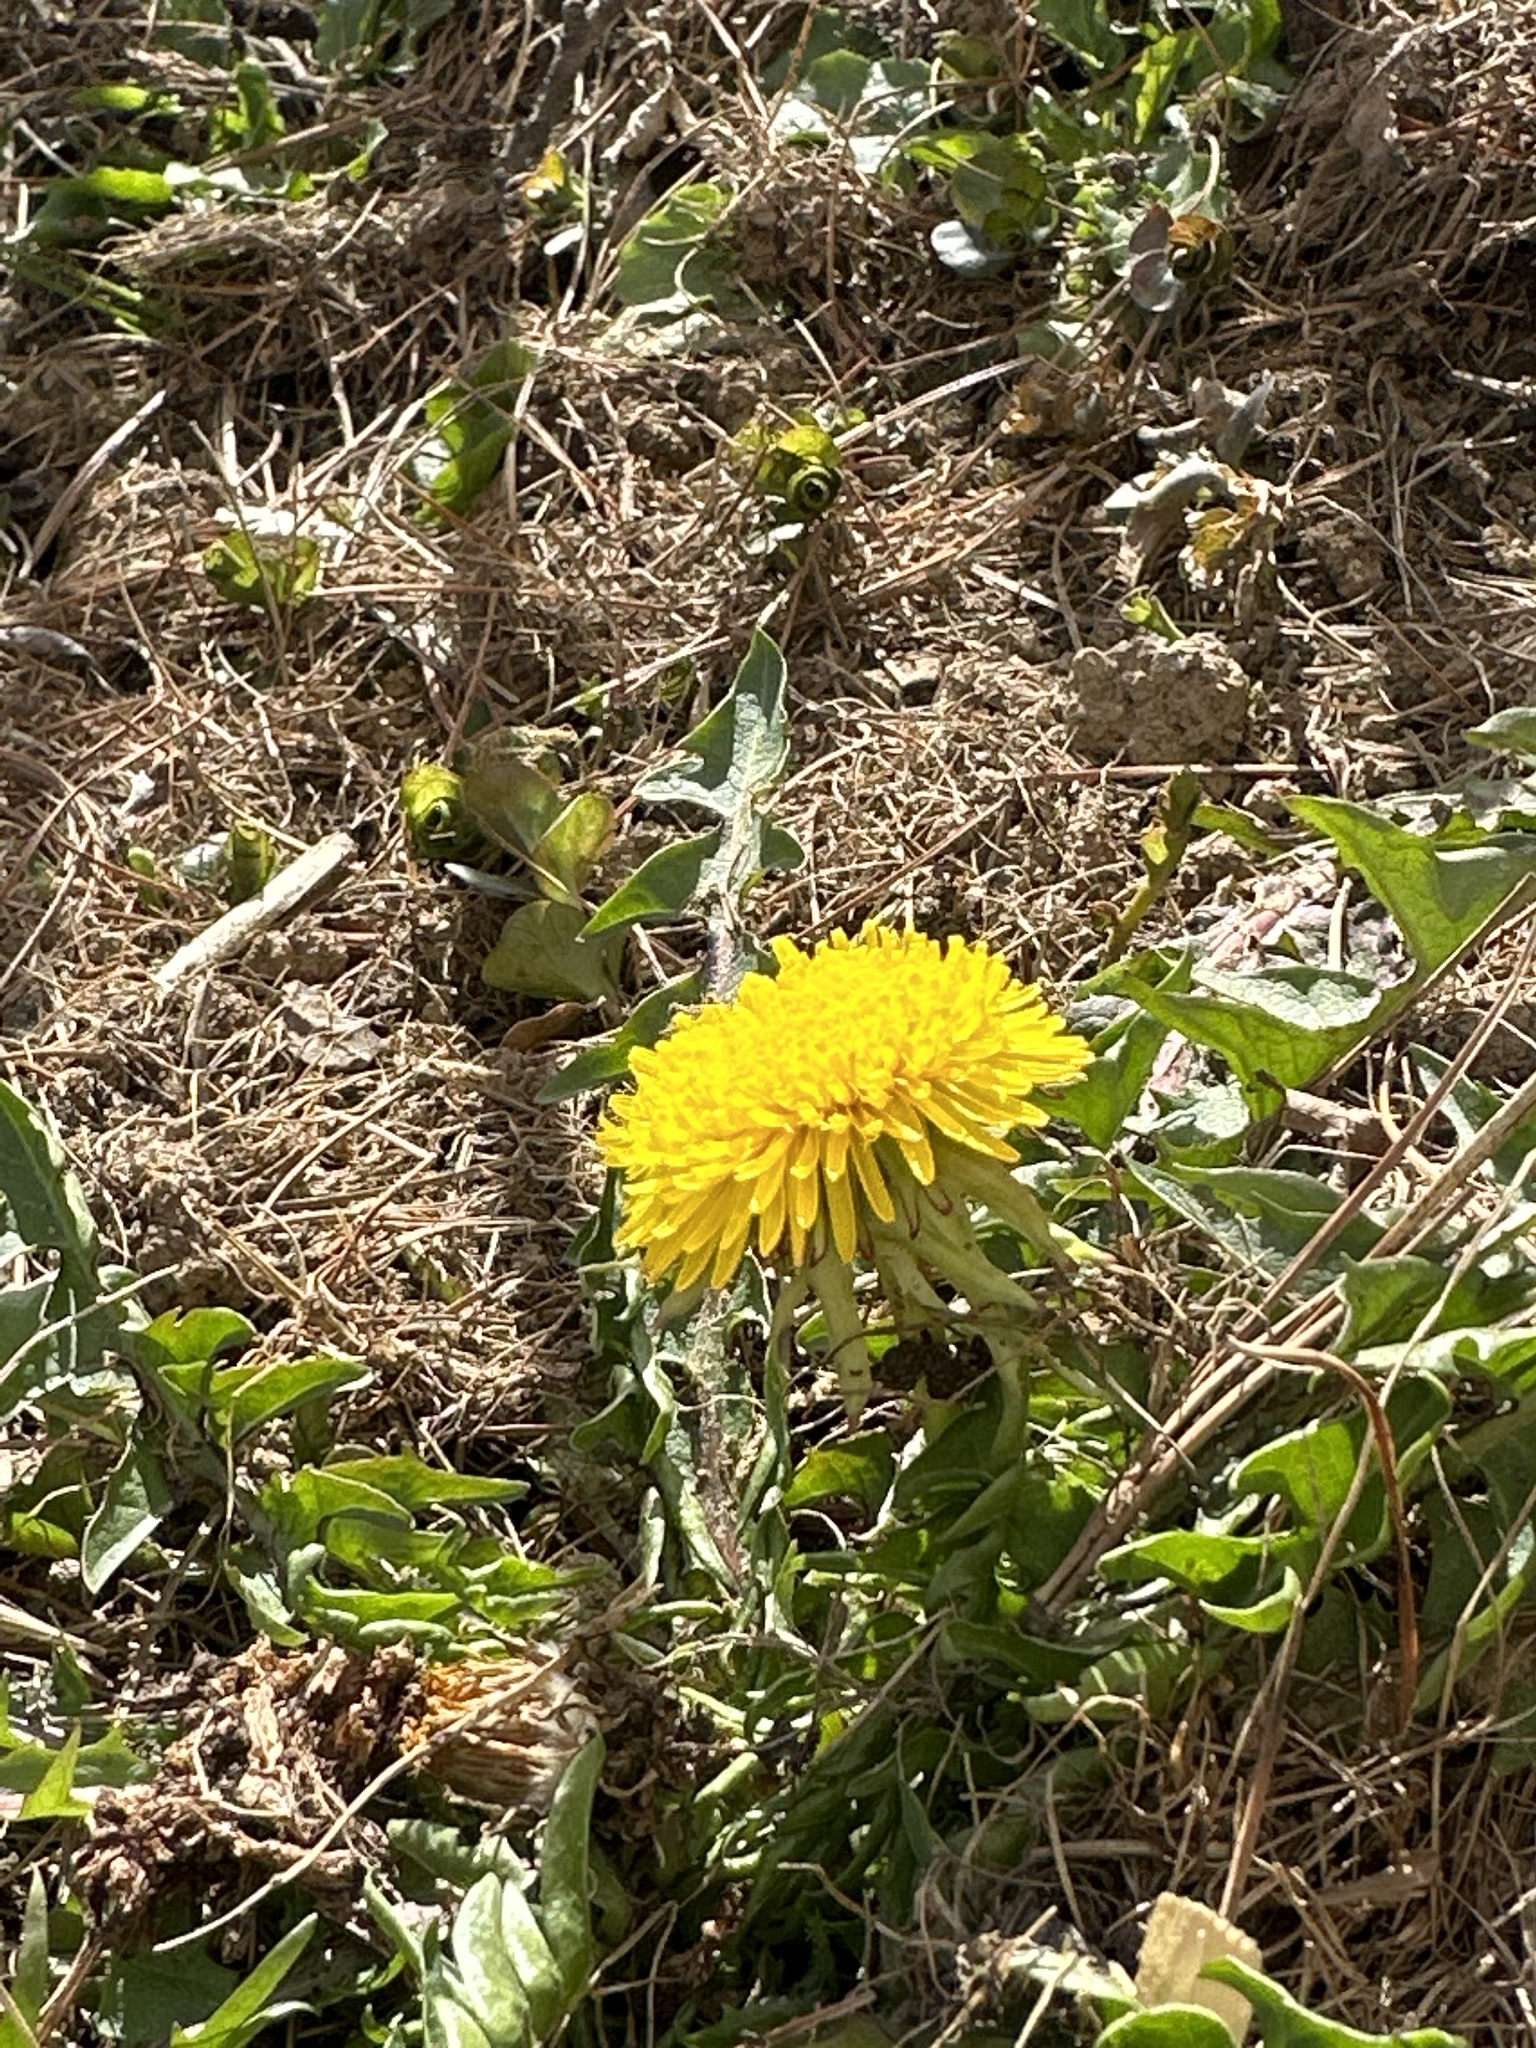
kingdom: Plantae
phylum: Tracheophyta
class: Magnoliopsida
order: Asterales
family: Asteraceae
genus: Taraxacum
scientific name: Taraxacum
